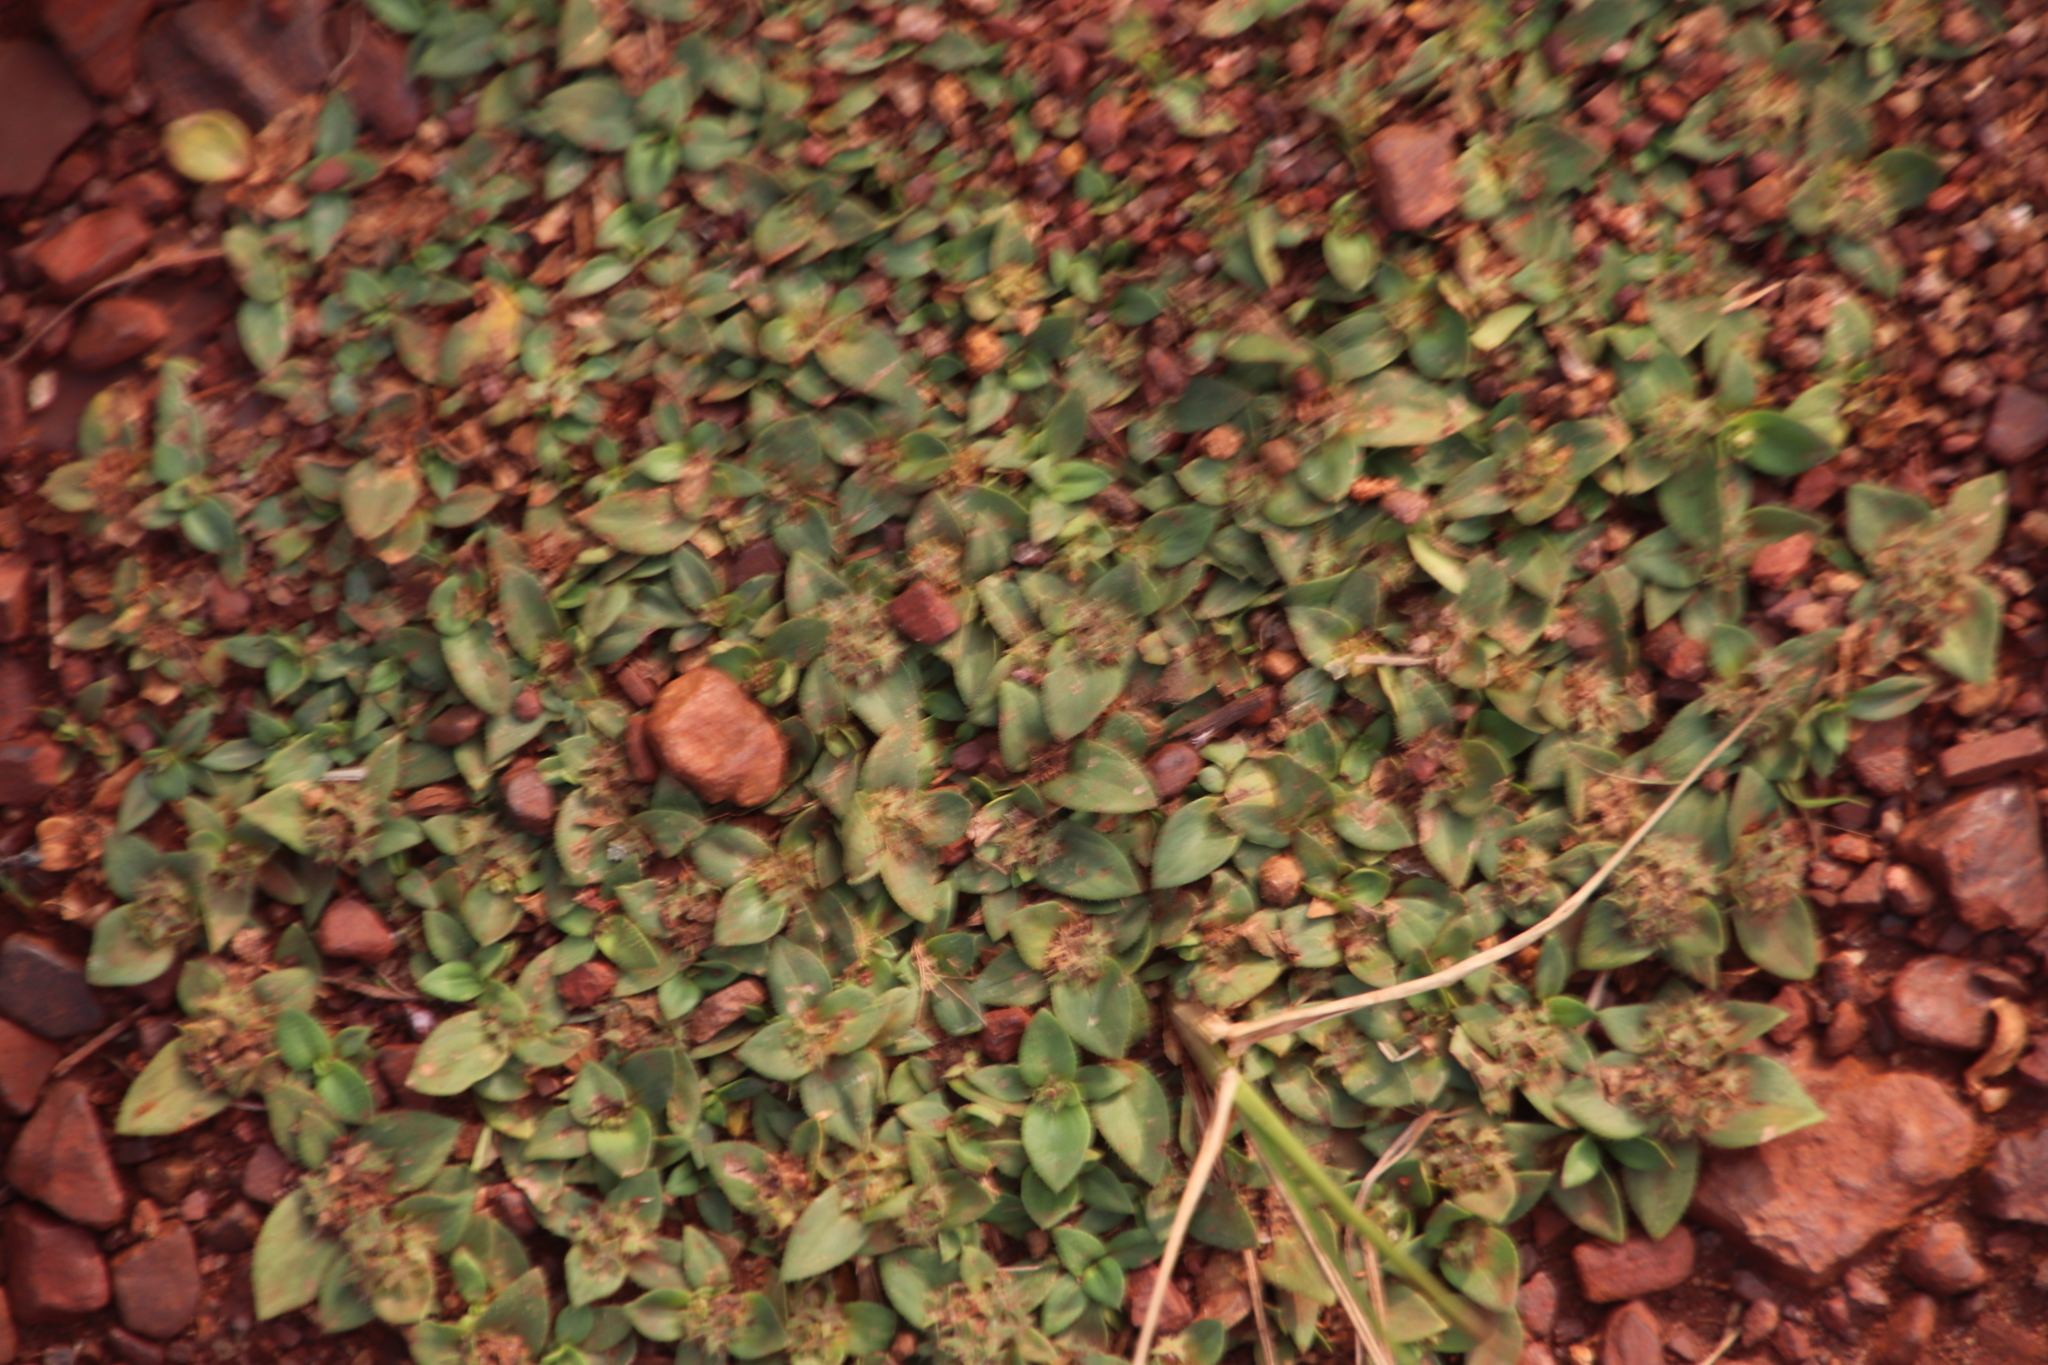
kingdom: Plantae
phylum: Tracheophyta
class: Magnoliopsida
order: Gentianales
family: Rubiaceae
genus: Richardia
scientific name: Richardia brasiliensis
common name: Tropical mexican clover
